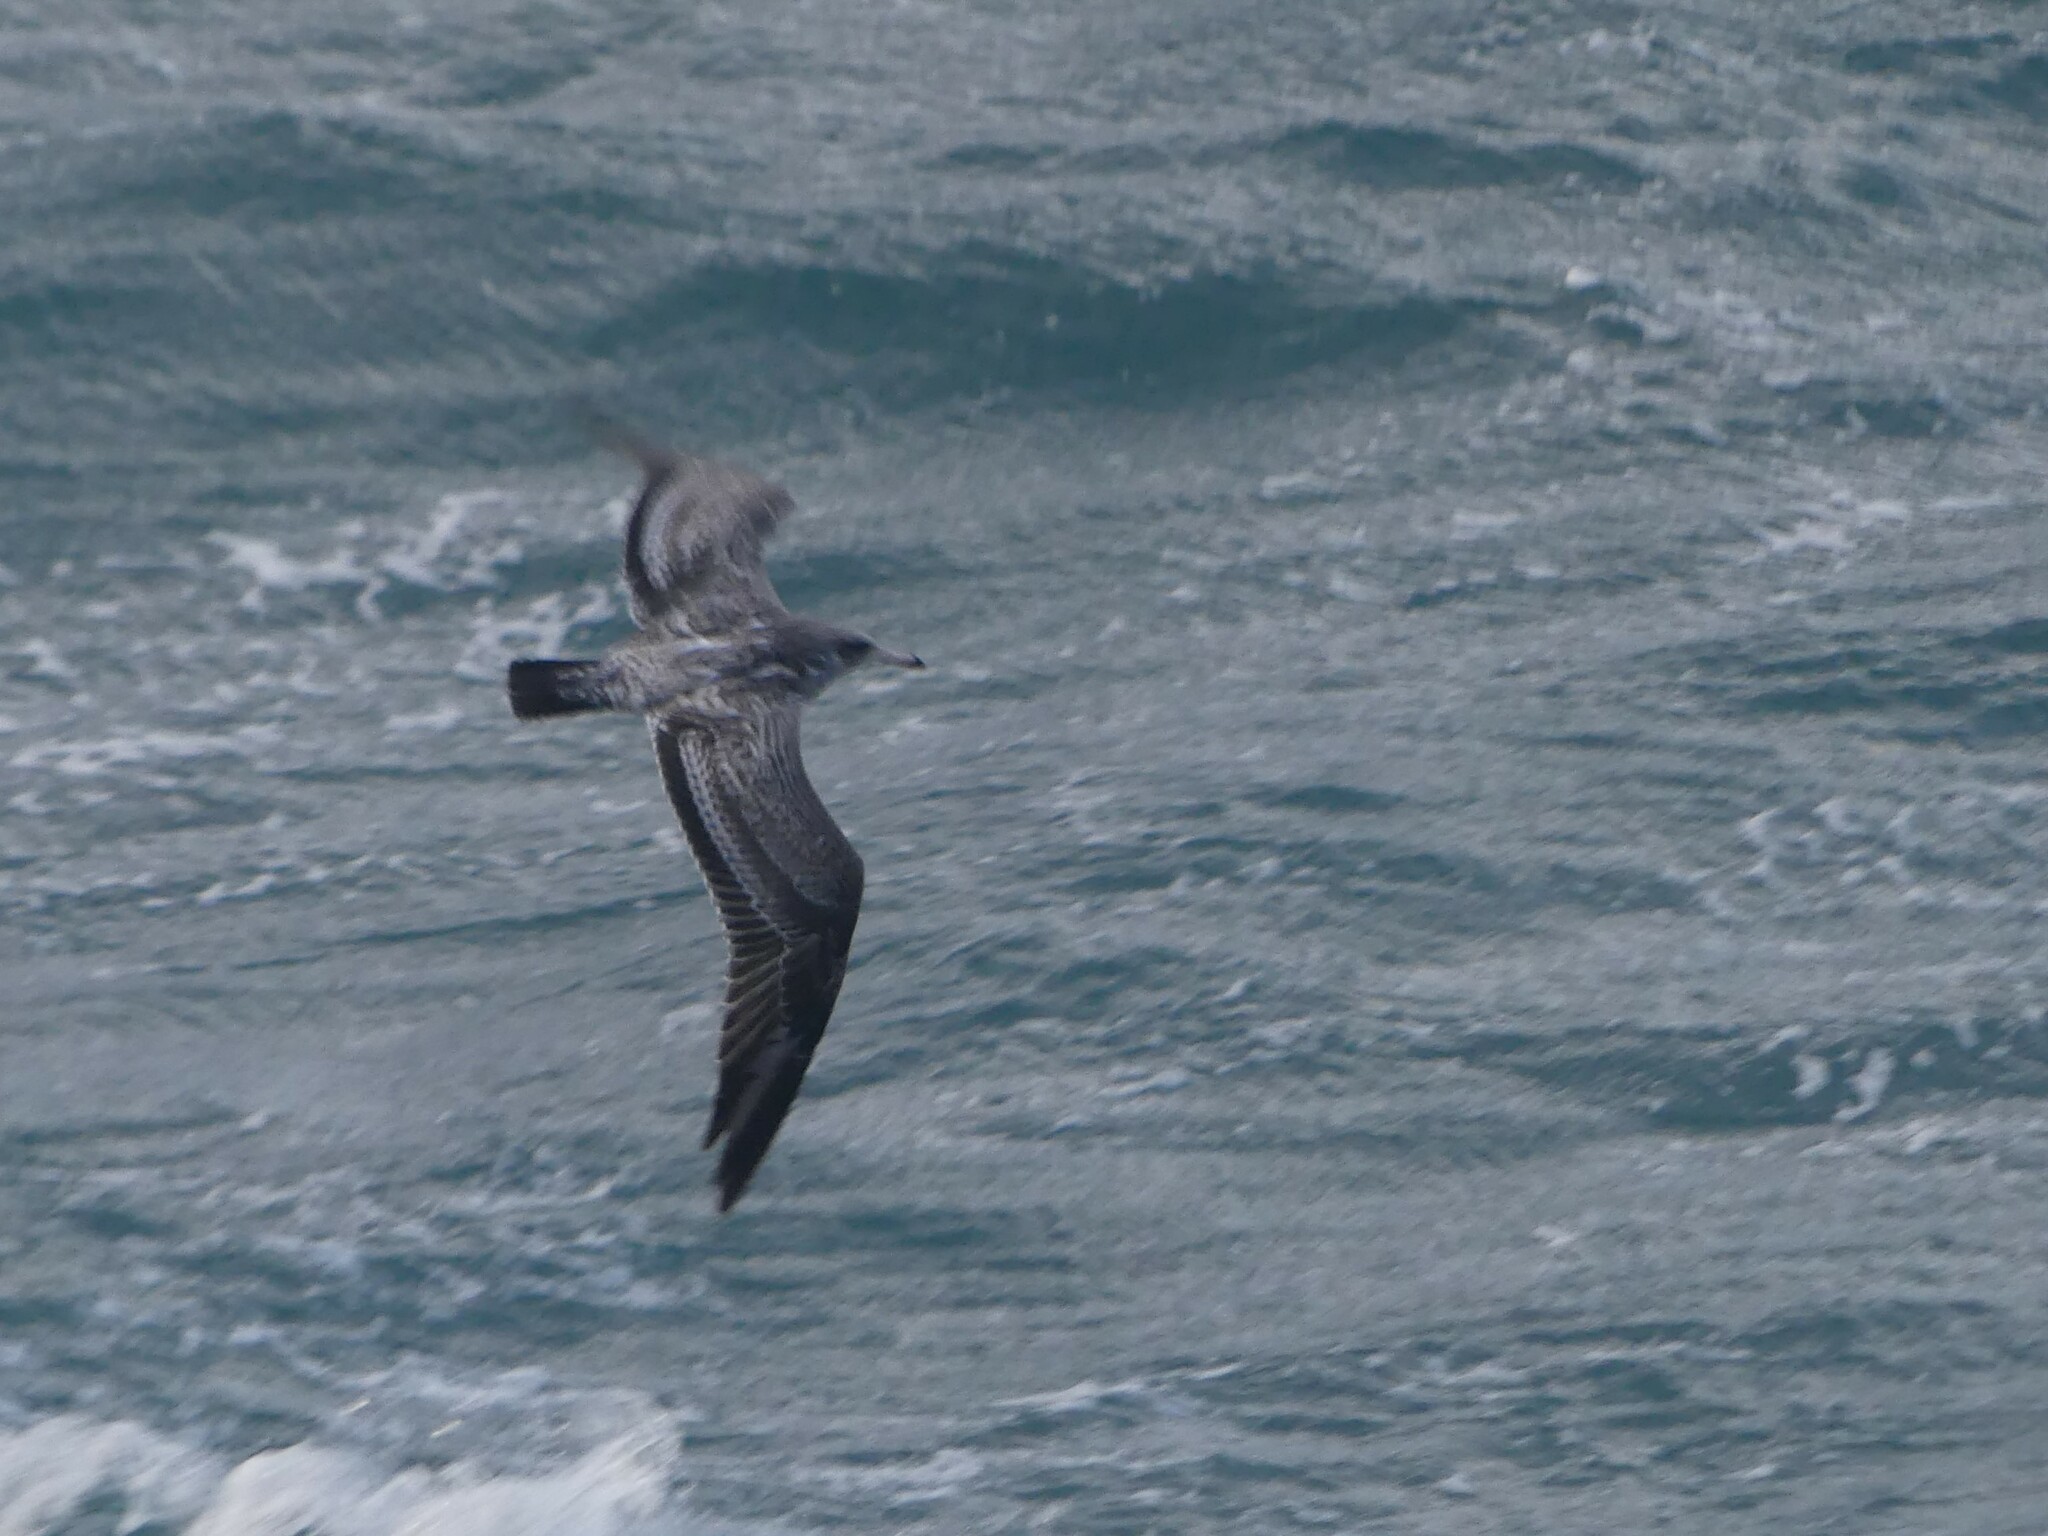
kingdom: Animalia
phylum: Chordata
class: Aves
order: Charadriiformes
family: Laridae
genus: Larus
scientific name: Larus californicus
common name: California gull
